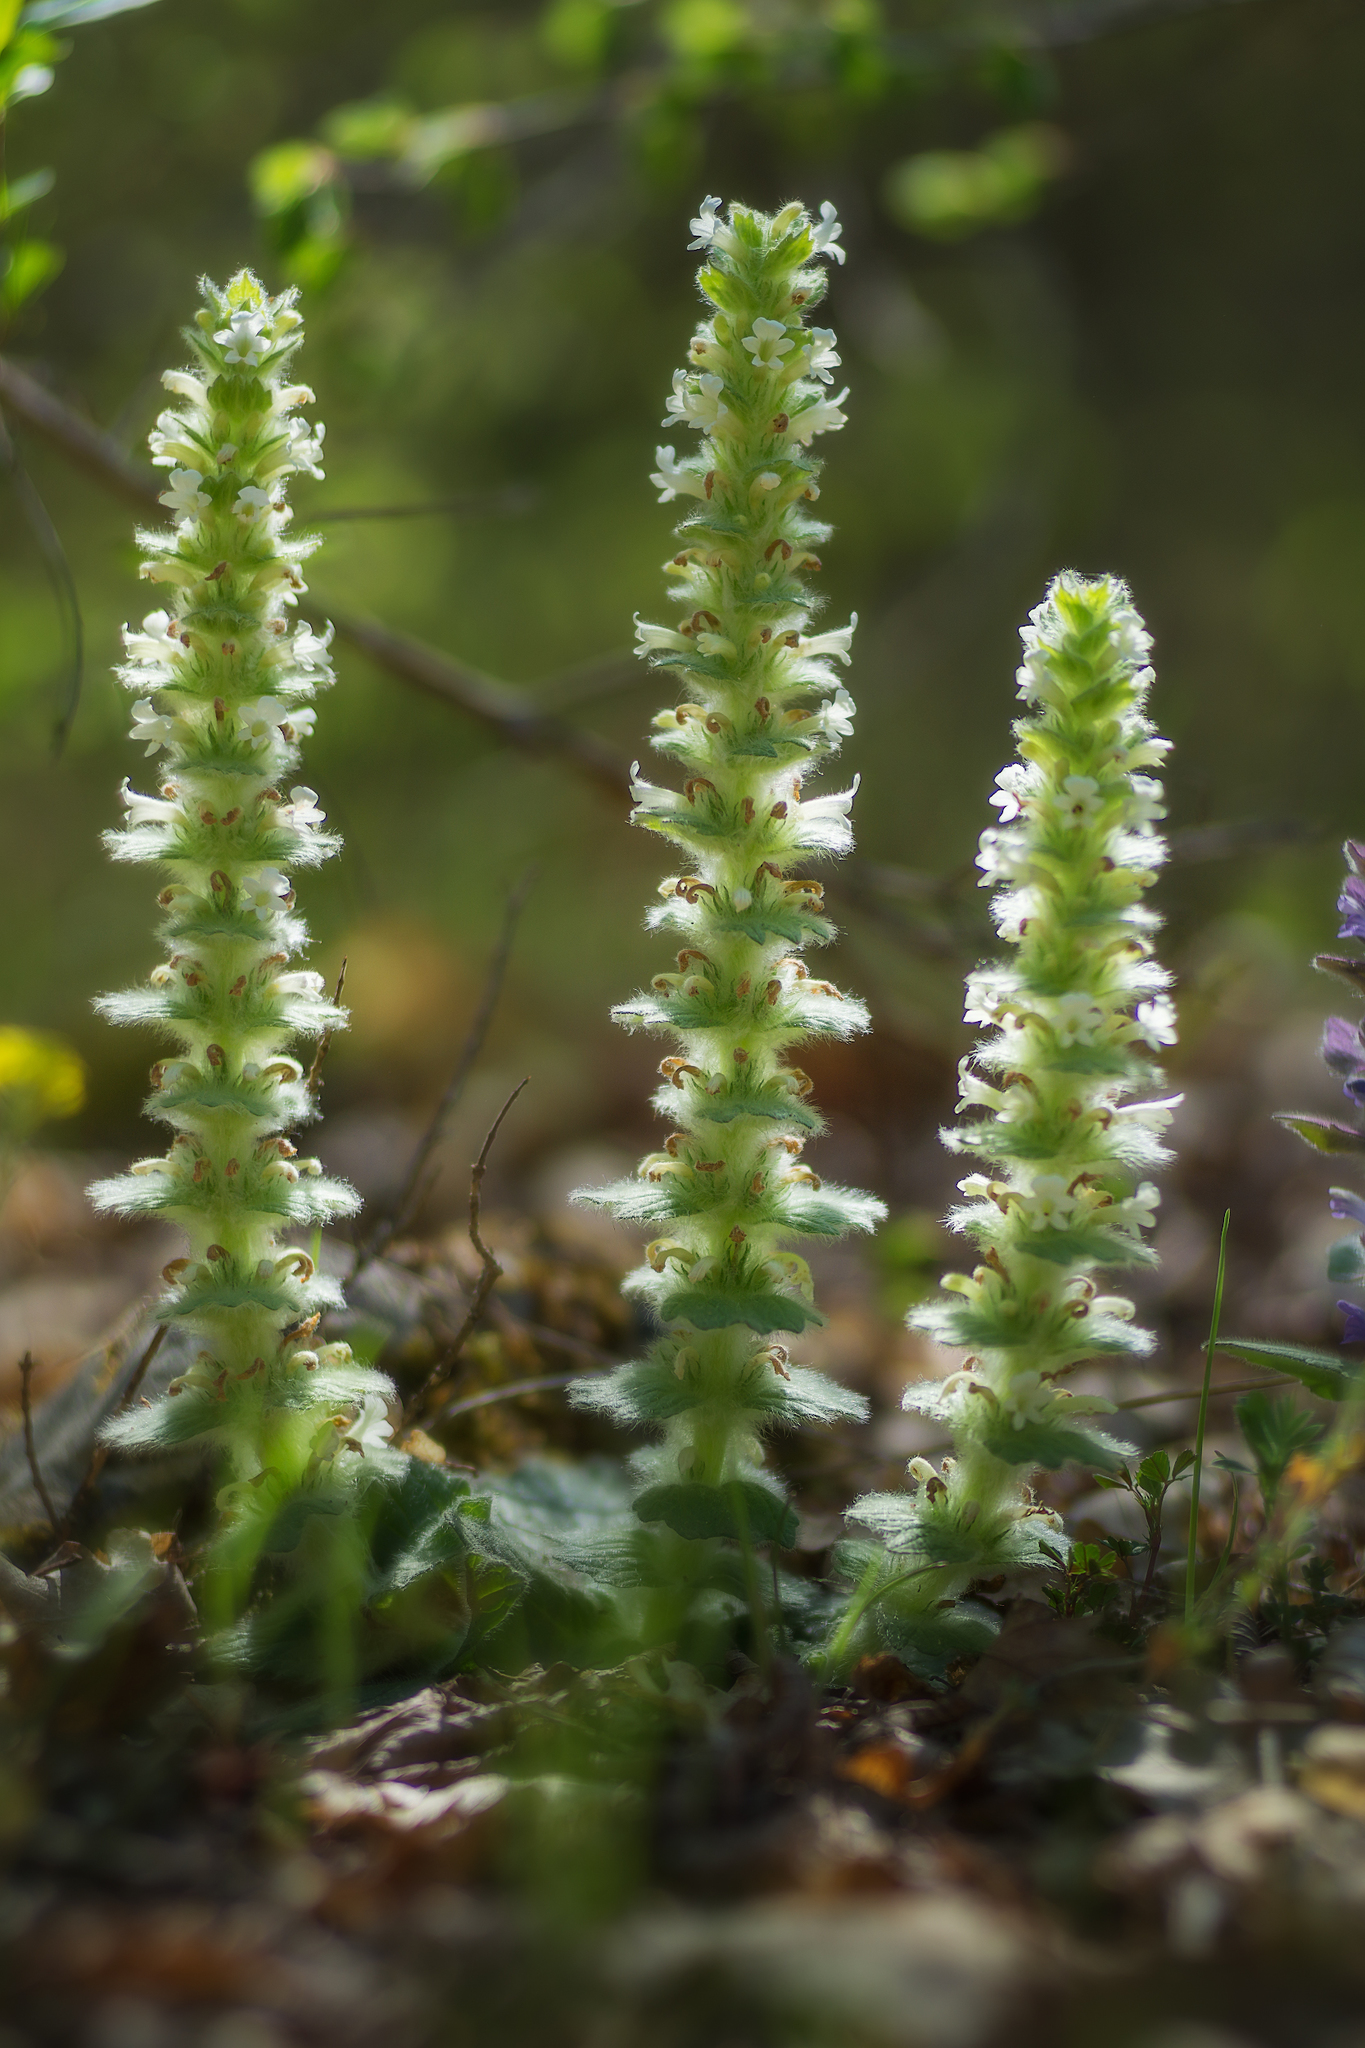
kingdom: Plantae
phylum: Tracheophyta
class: Magnoliopsida
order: Lamiales
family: Lamiaceae
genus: Ajuga
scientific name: Ajuga orientalis
